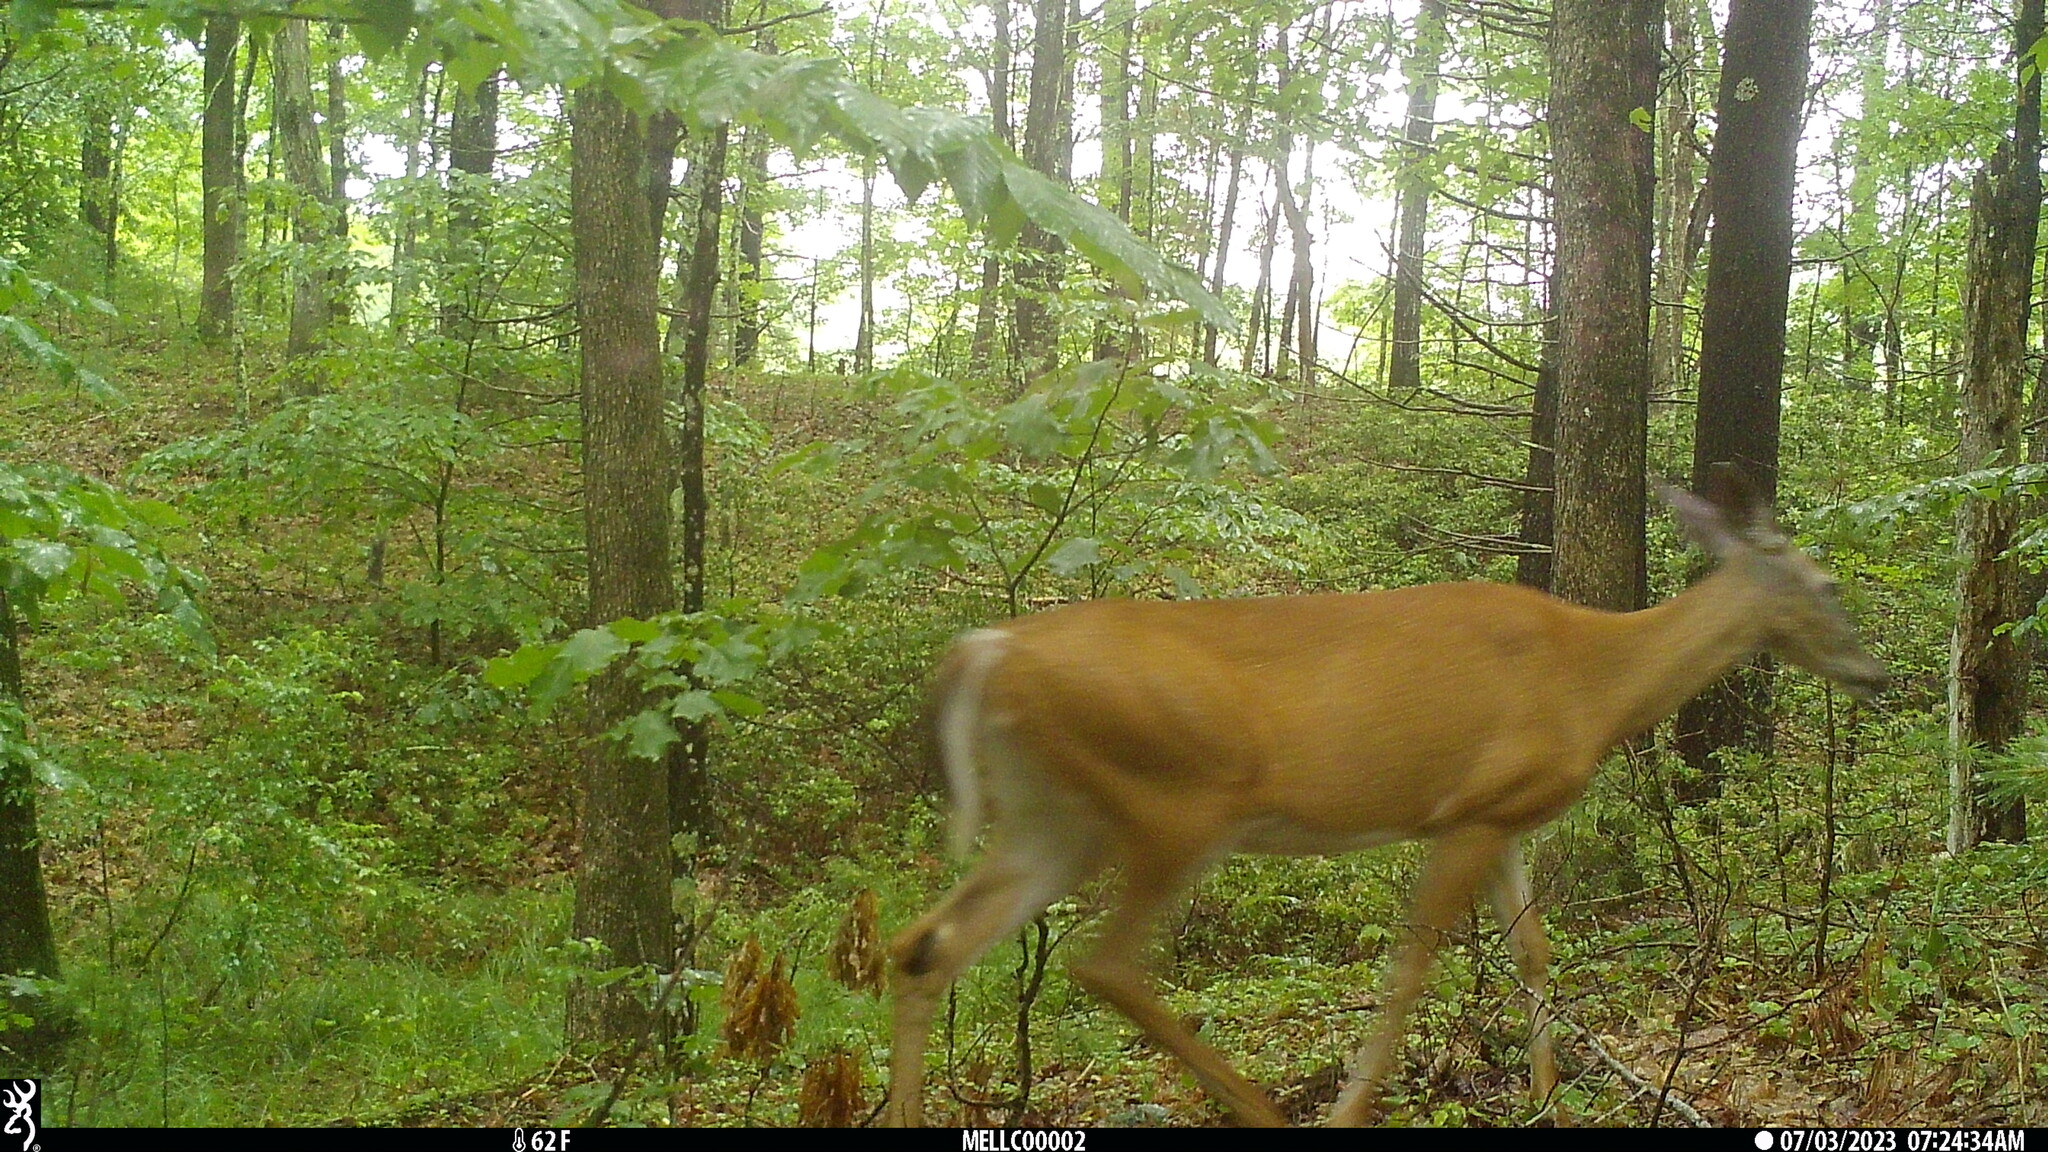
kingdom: Animalia
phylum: Chordata
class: Mammalia
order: Artiodactyla
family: Cervidae
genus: Odocoileus
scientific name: Odocoileus virginianus
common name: White-tailed deer
